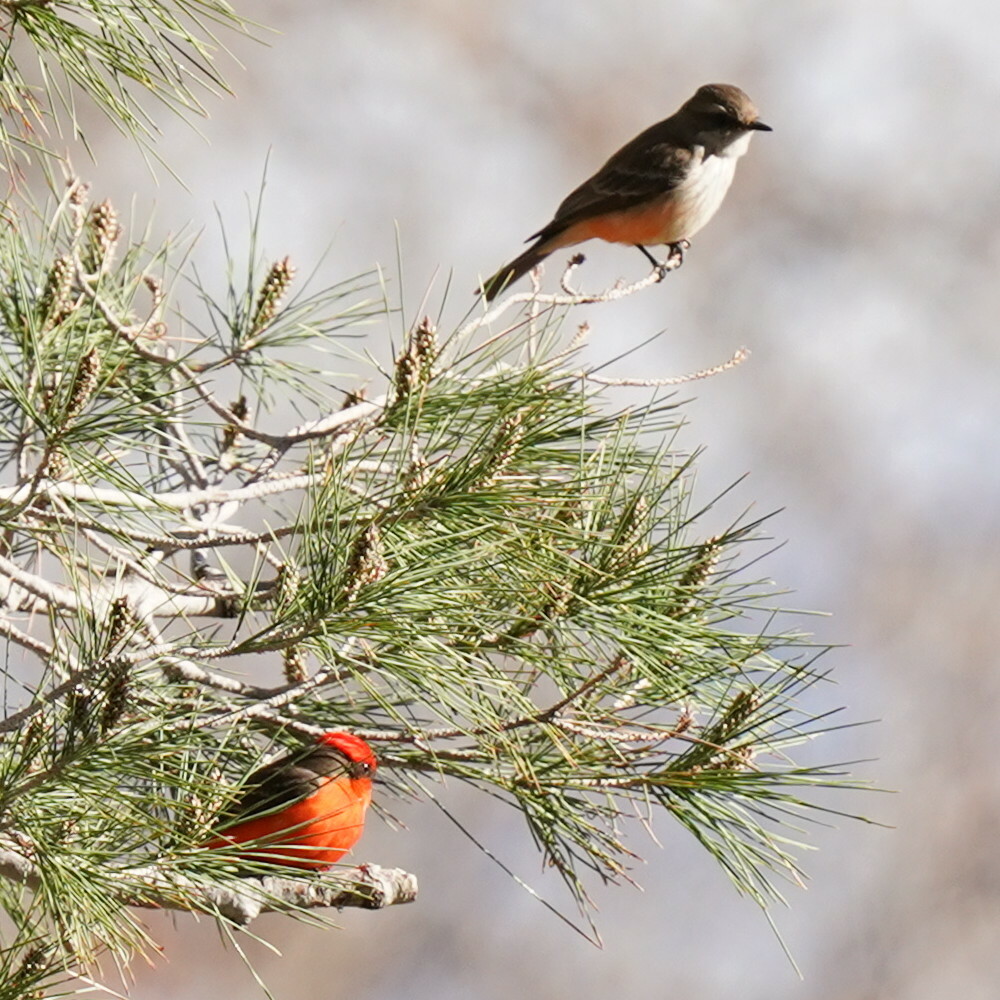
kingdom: Animalia
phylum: Chordata
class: Aves
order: Passeriformes
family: Tyrannidae
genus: Pyrocephalus
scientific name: Pyrocephalus rubinus
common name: Vermilion flycatcher
